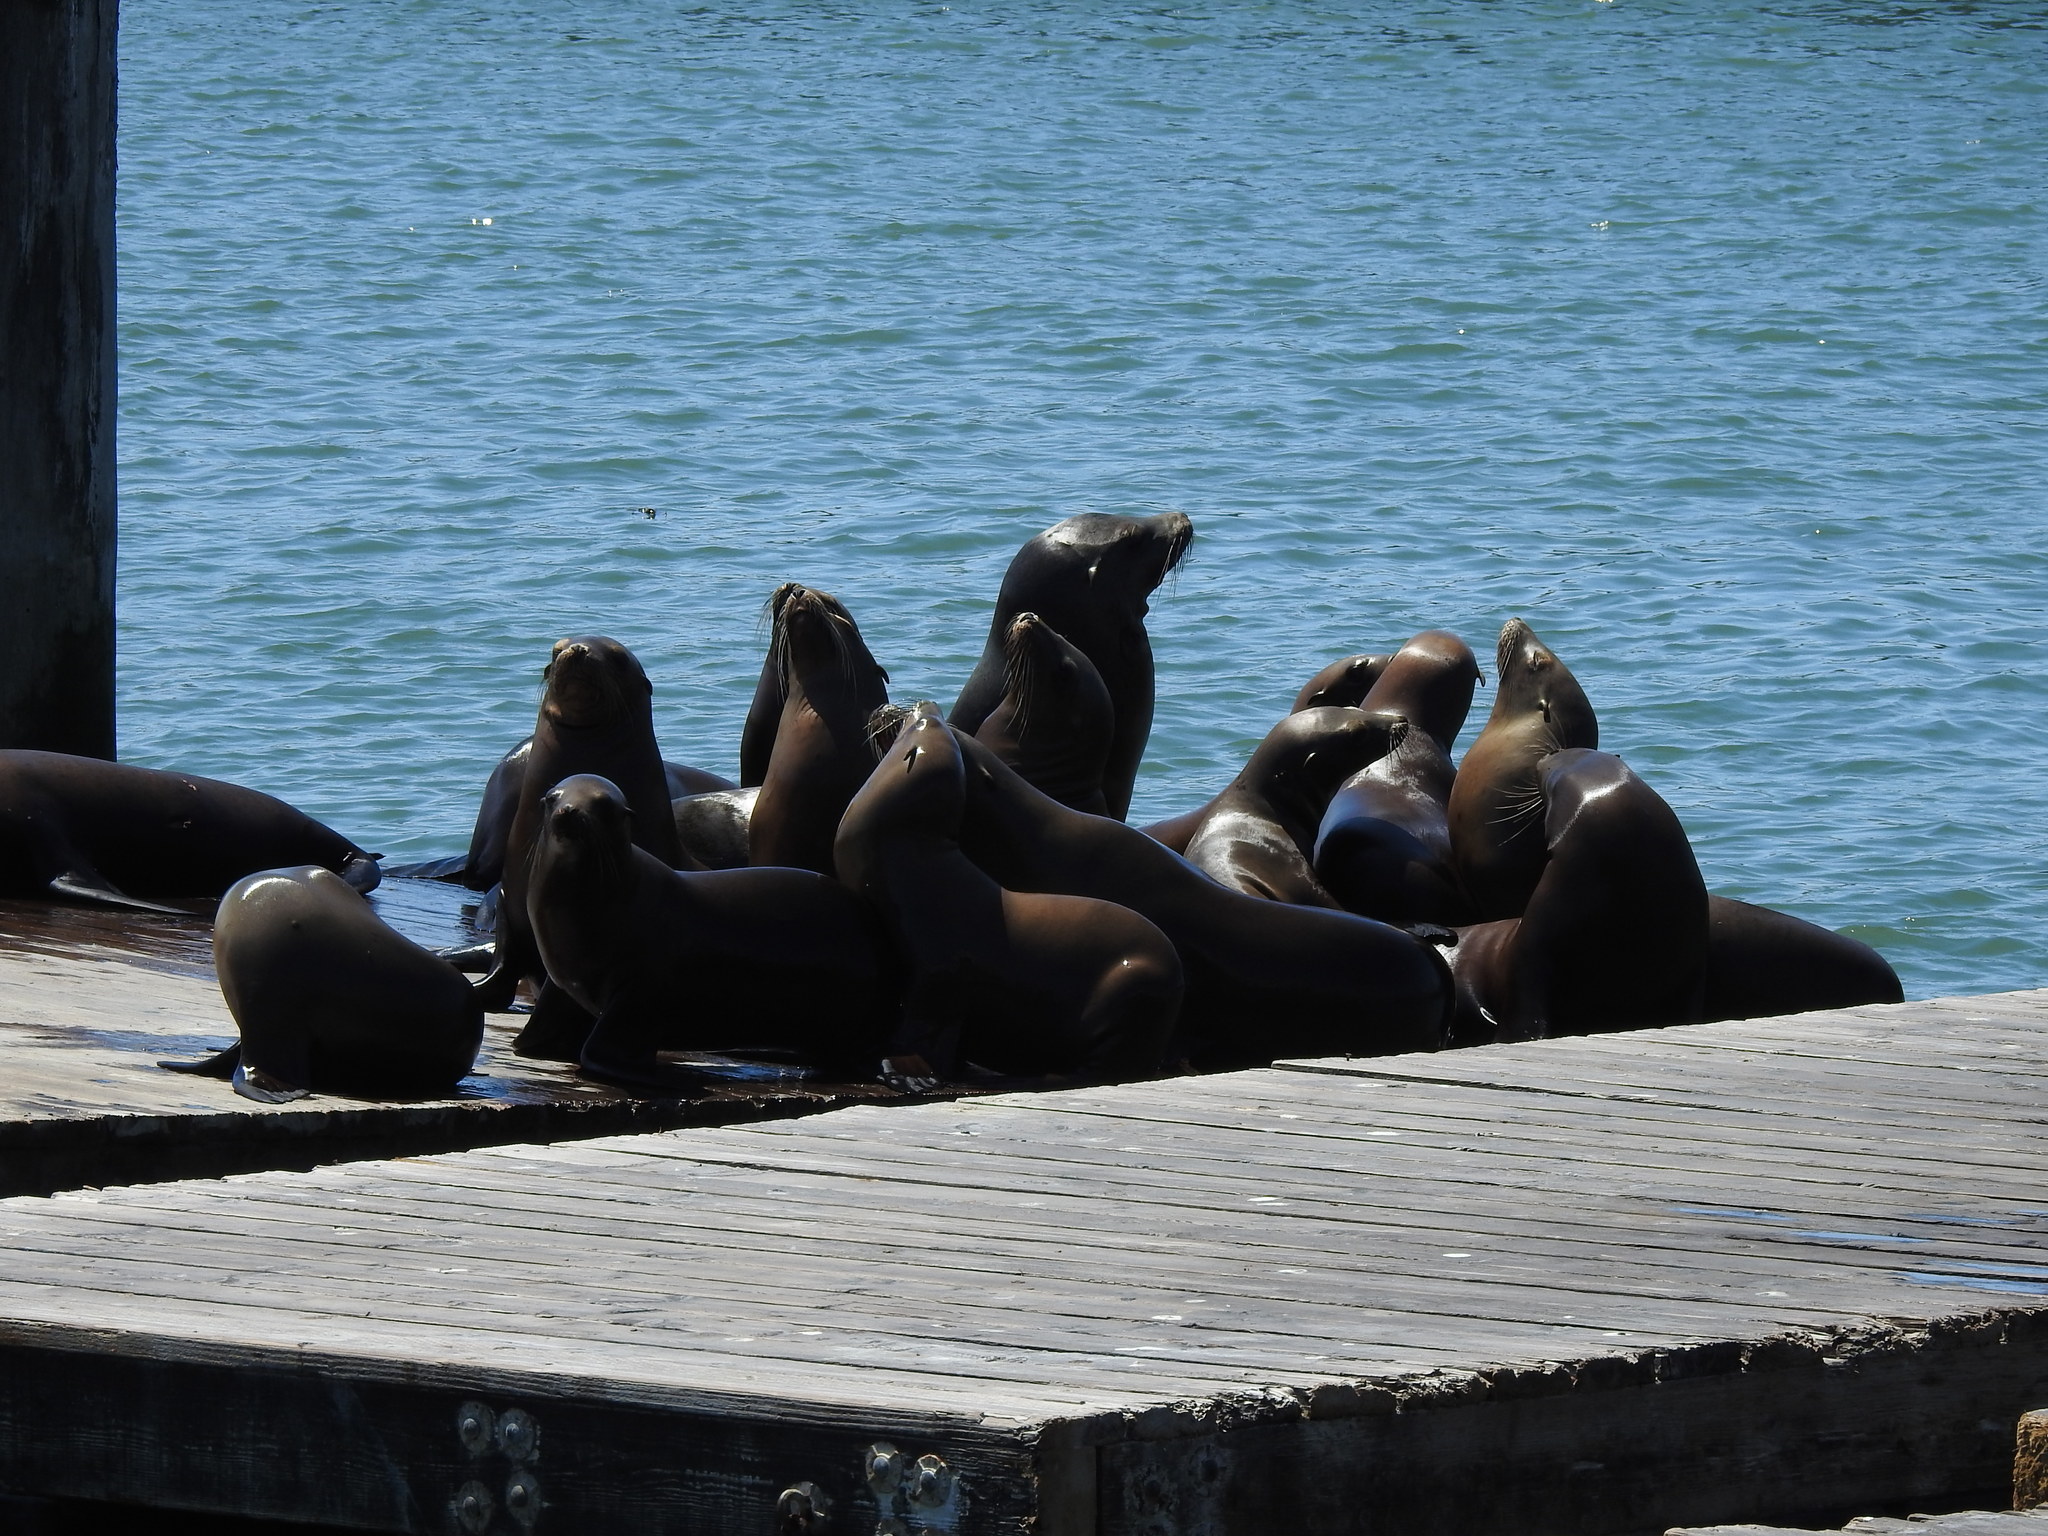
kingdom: Animalia
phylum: Chordata
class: Mammalia
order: Carnivora
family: Otariidae
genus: Zalophus
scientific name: Zalophus californianus
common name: California sea lion
